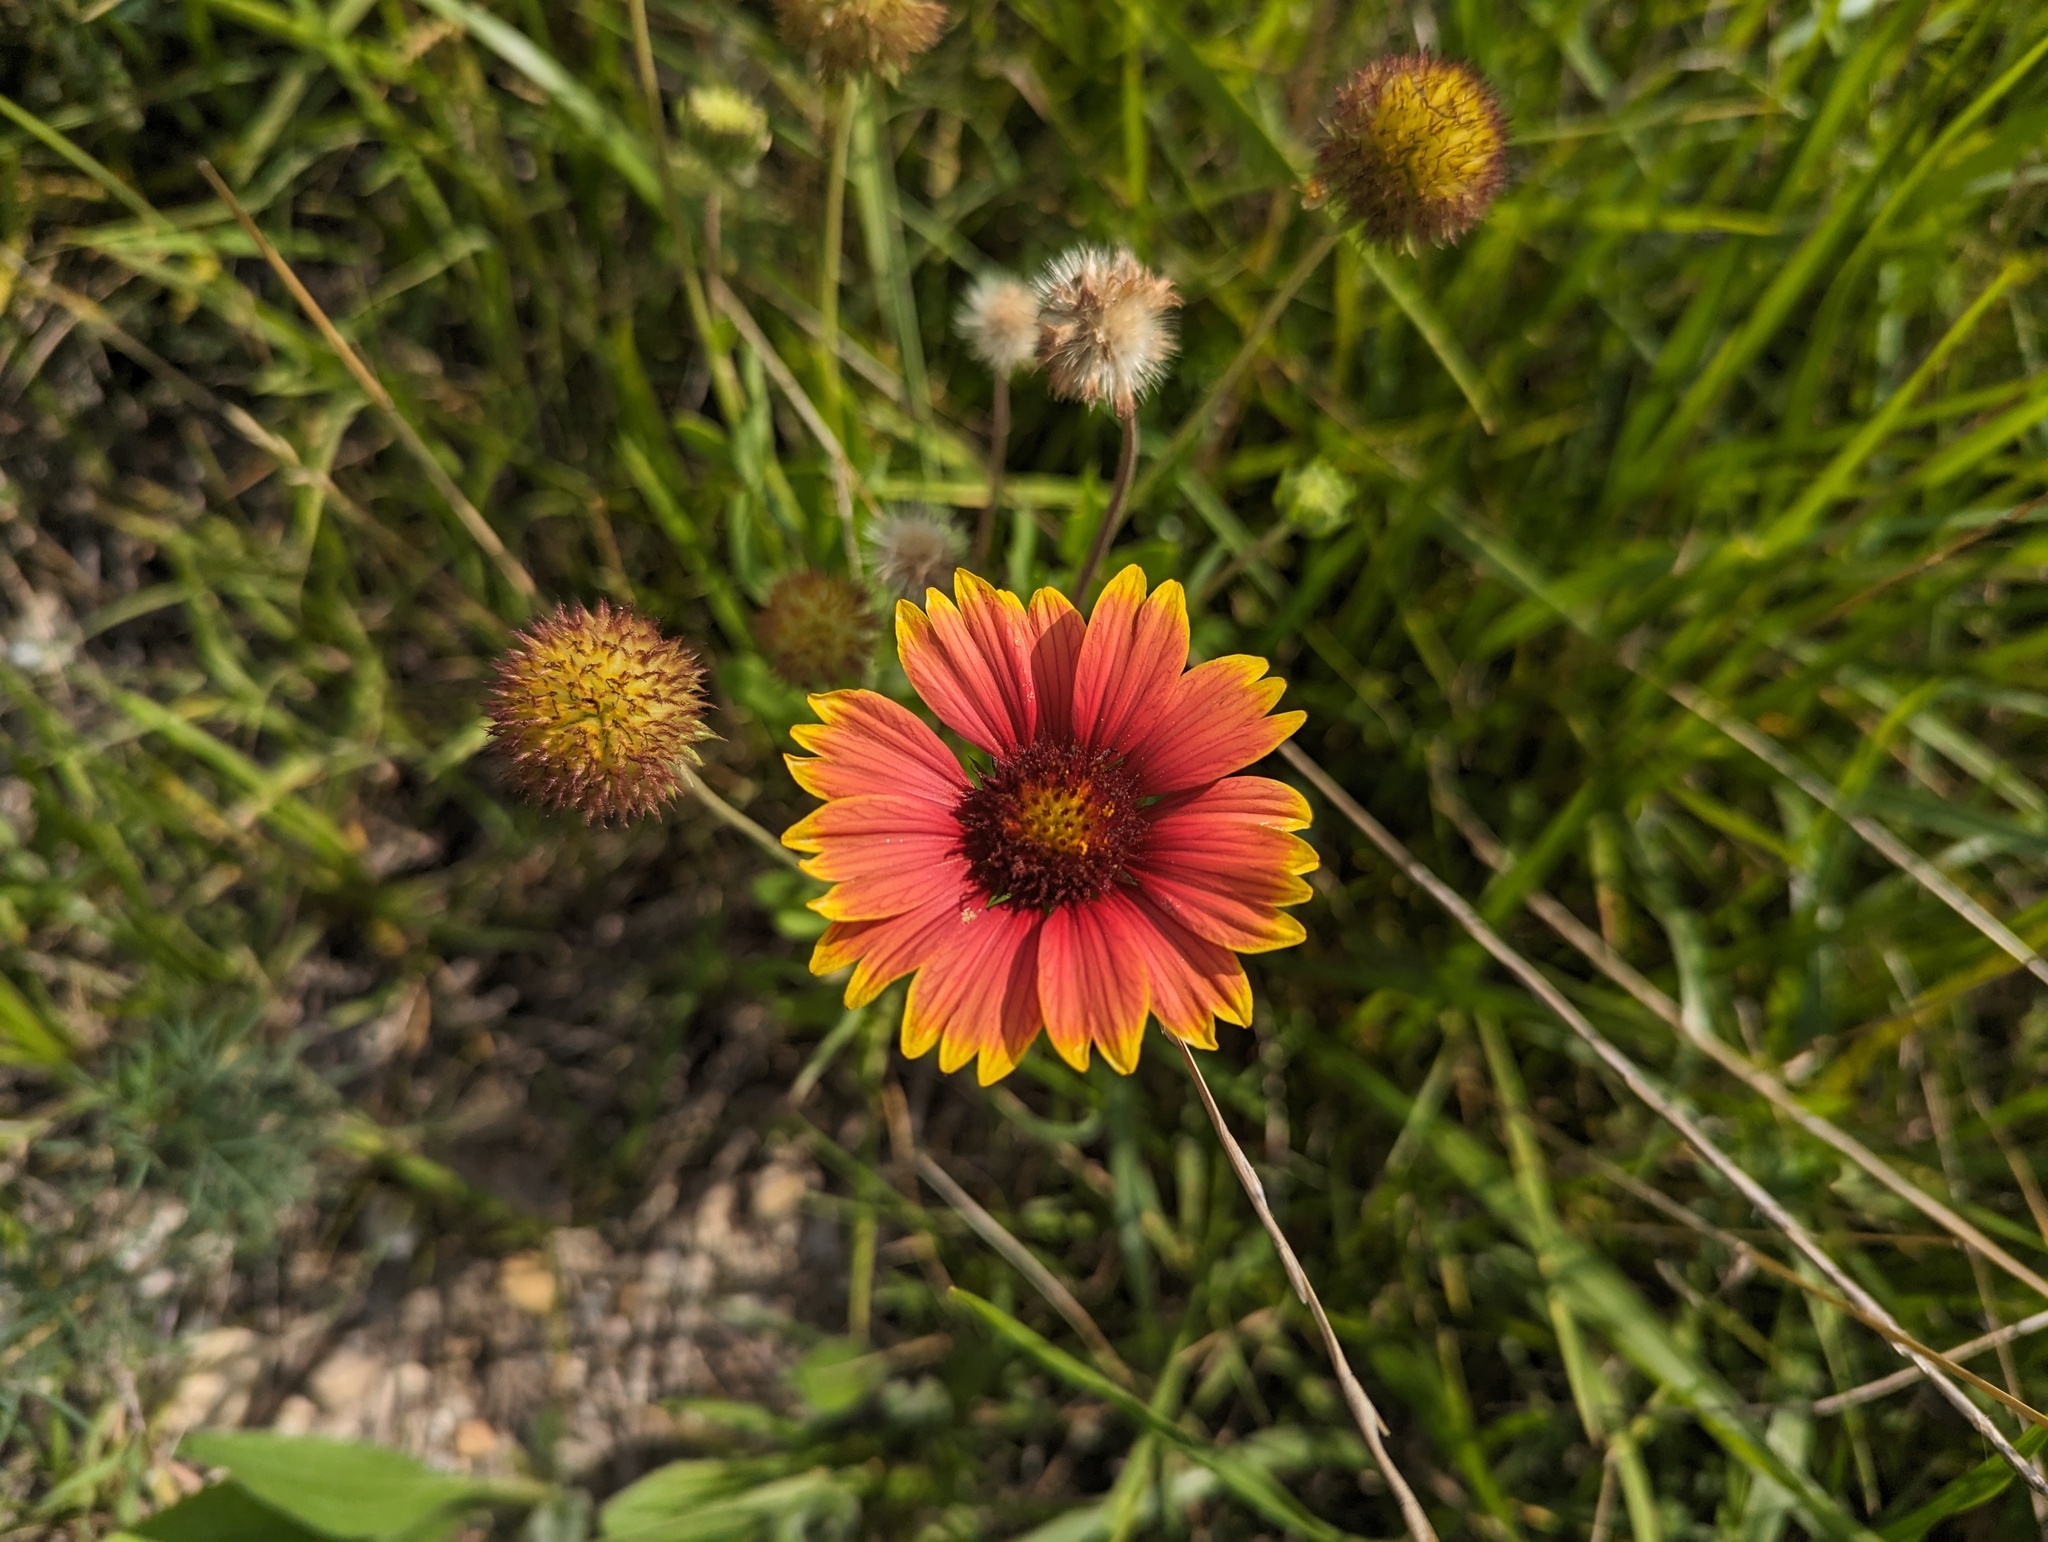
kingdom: Plantae
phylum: Tracheophyta
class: Magnoliopsida
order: Asterales
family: Asteraceae
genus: Gaillardia
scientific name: Gaillardia pulchella
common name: Firewheel
